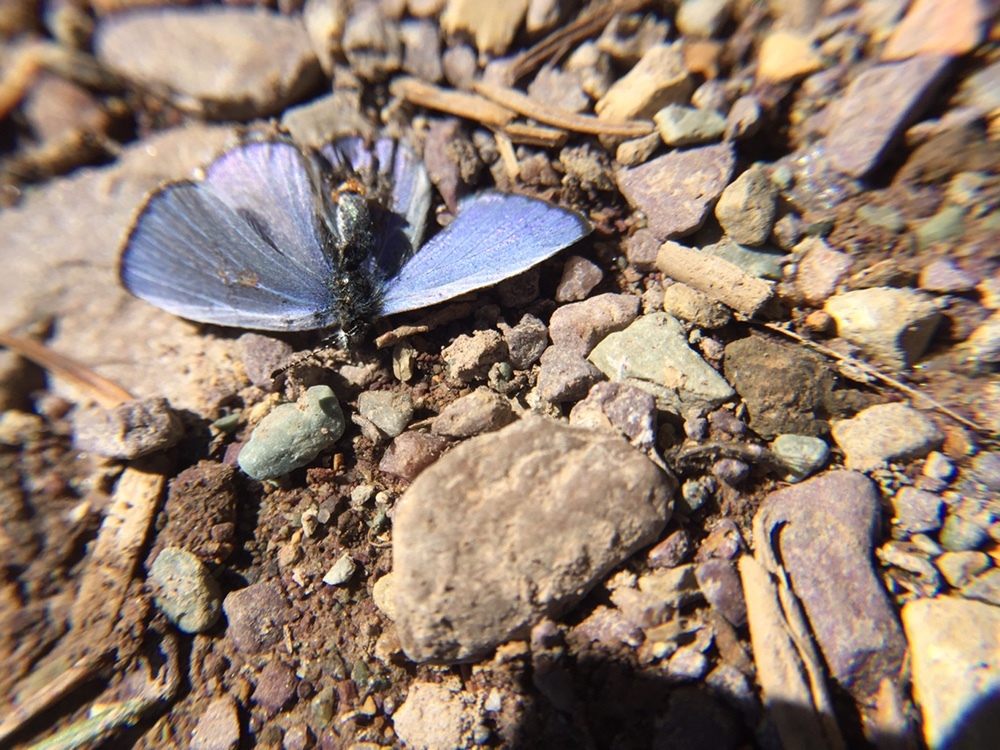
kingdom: Animalia
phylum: Arthropoda
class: Insecta
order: Lepidoptera
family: Lycaenidae
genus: Celastrina
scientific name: Celastrina asheri
